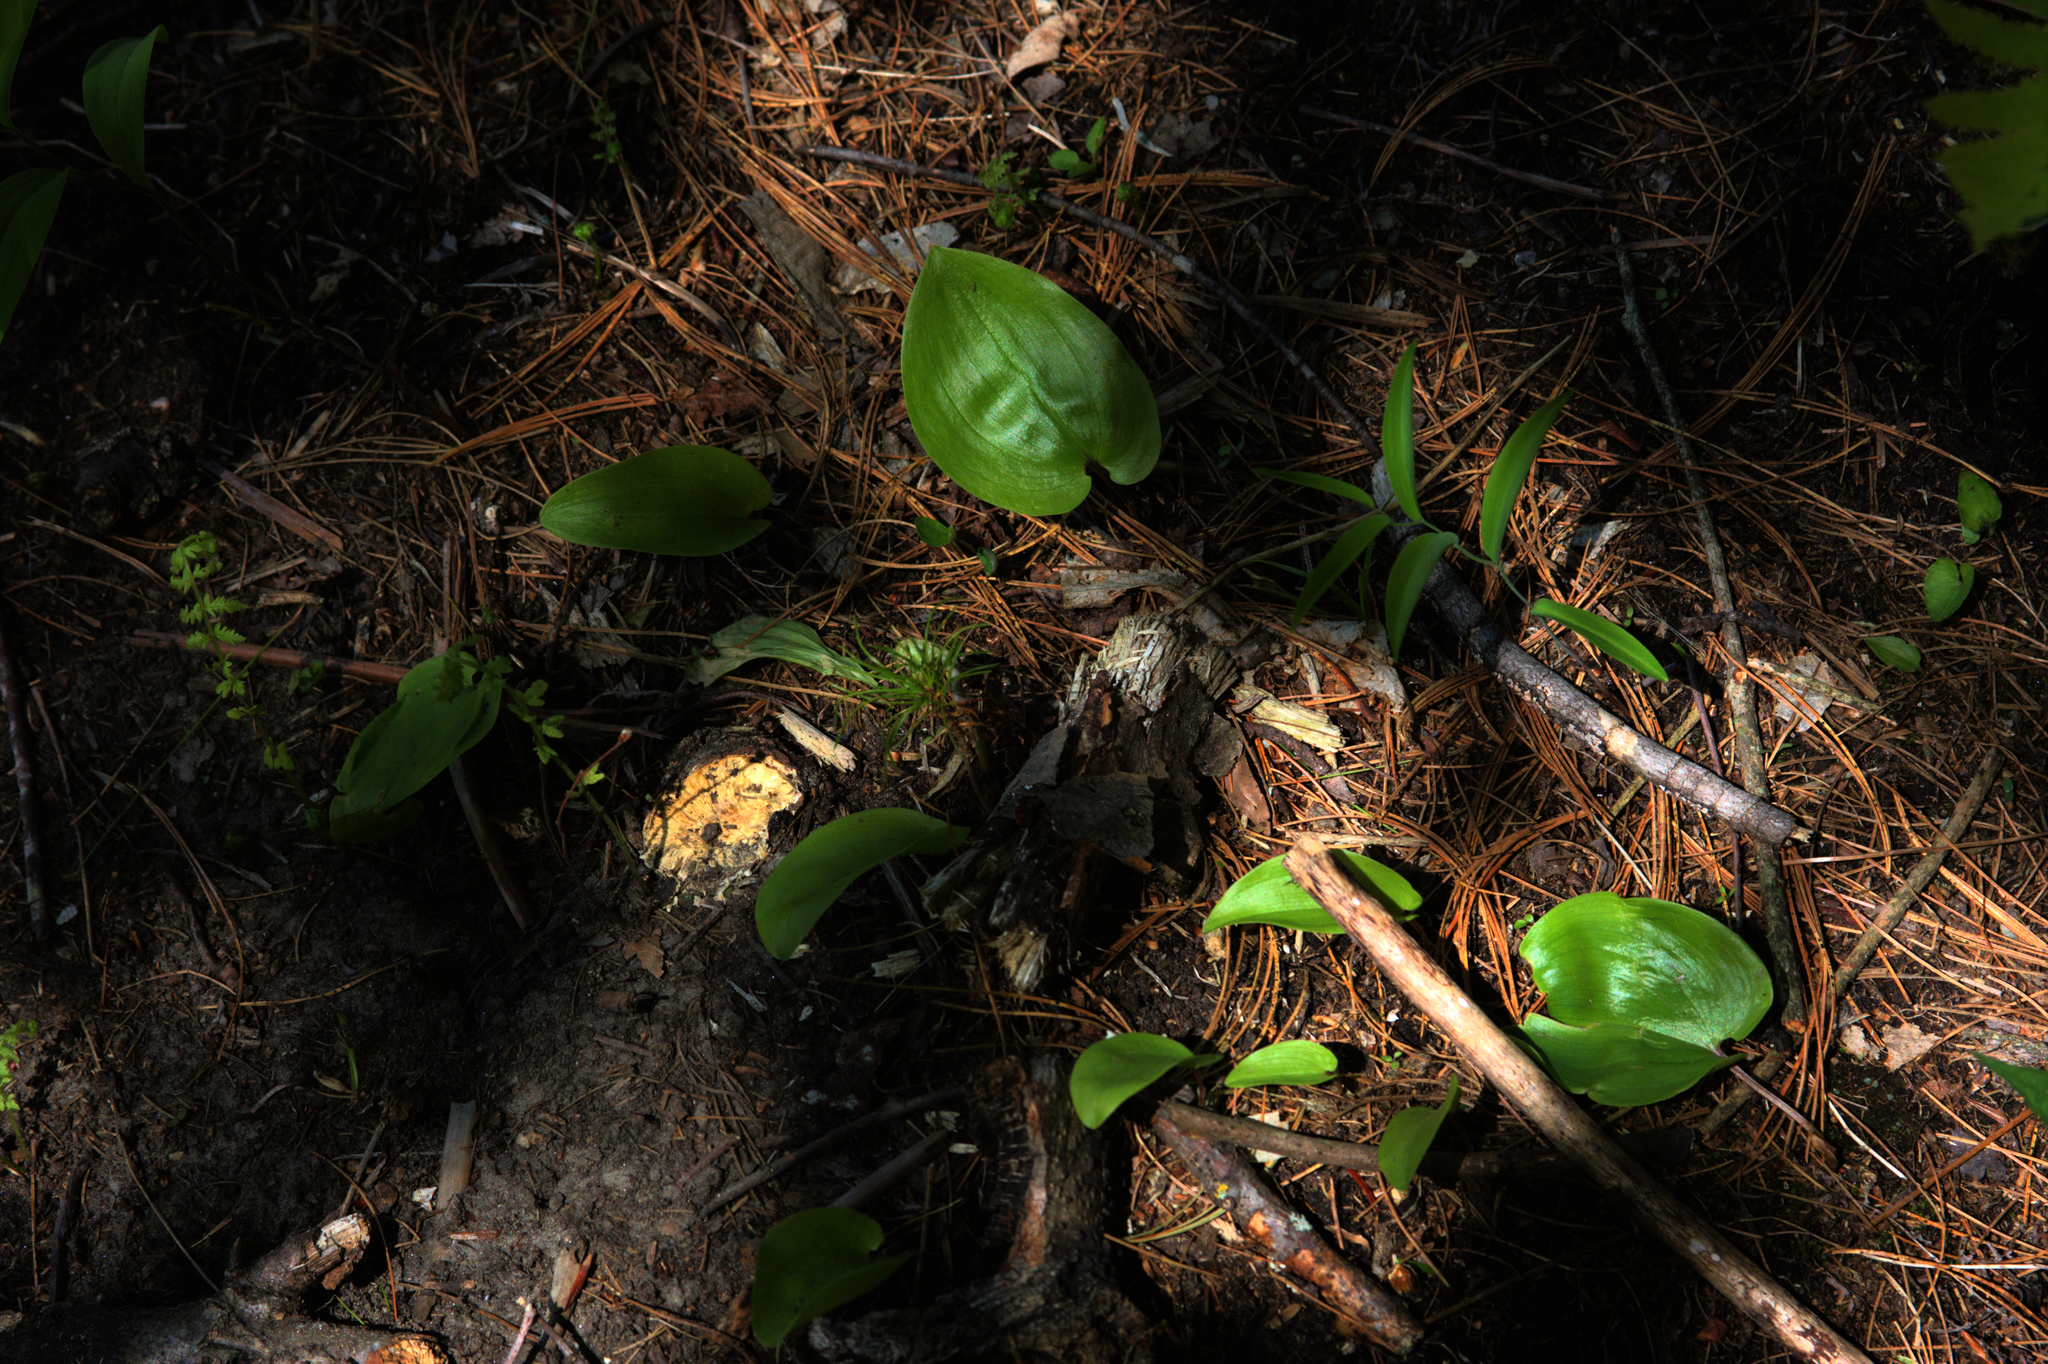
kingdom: Plantae
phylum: Tracheophyta
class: Liliopsida
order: Asparagales
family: Asparagaceae
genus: Maianthemum
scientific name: Maianthemum canadense
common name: False lily-of-the-valley
